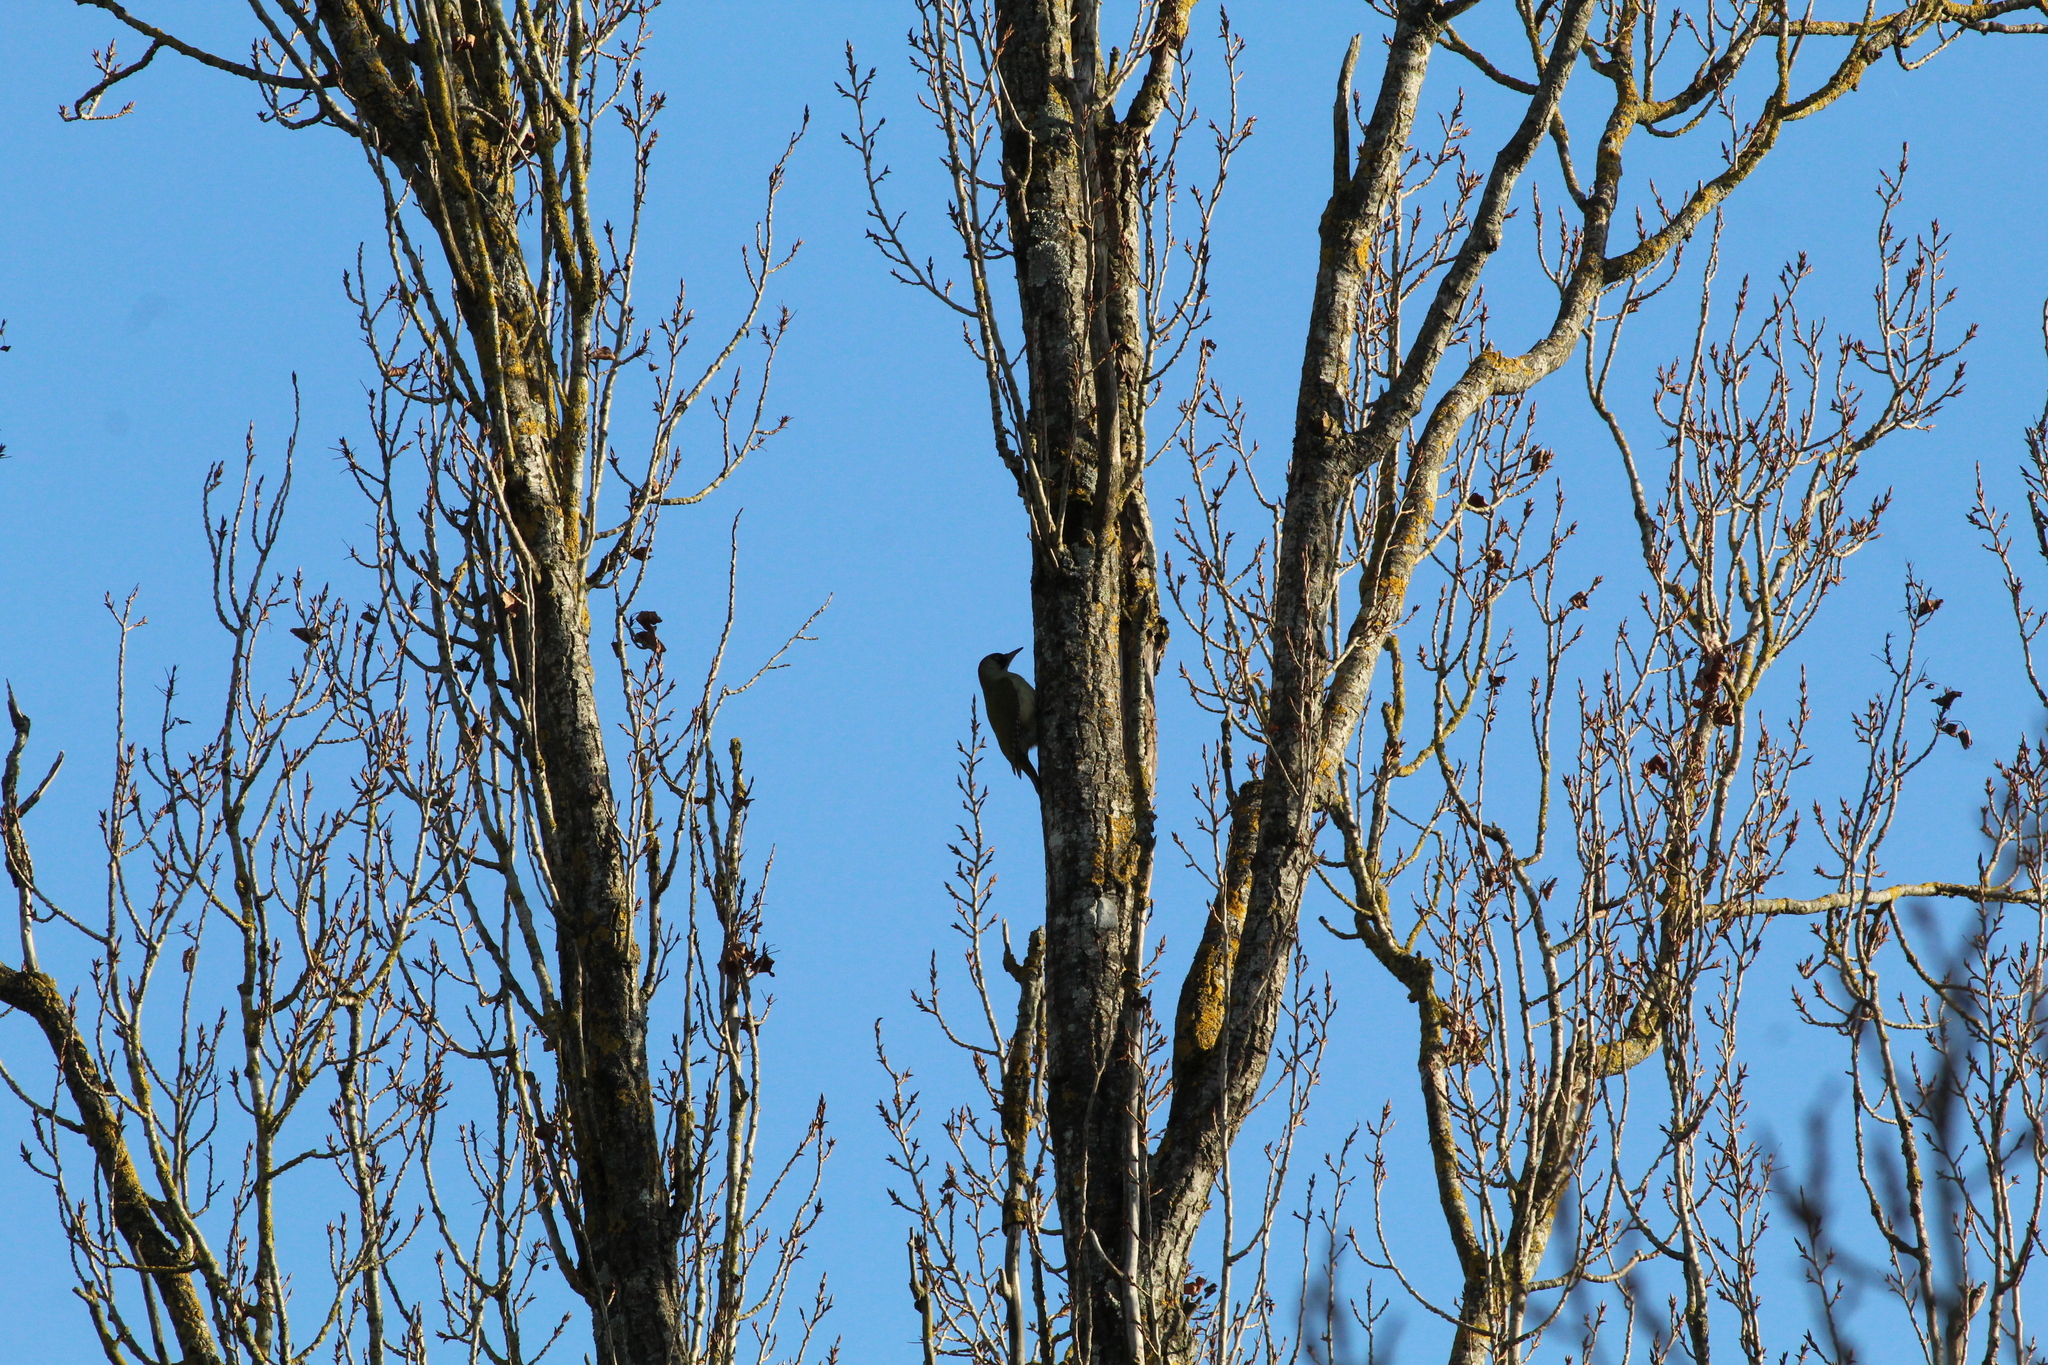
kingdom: Animalia
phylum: Chordata
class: Aves
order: Piciformes
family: Picidae
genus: Picus
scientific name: Picus viridis
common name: European green woodpecker
